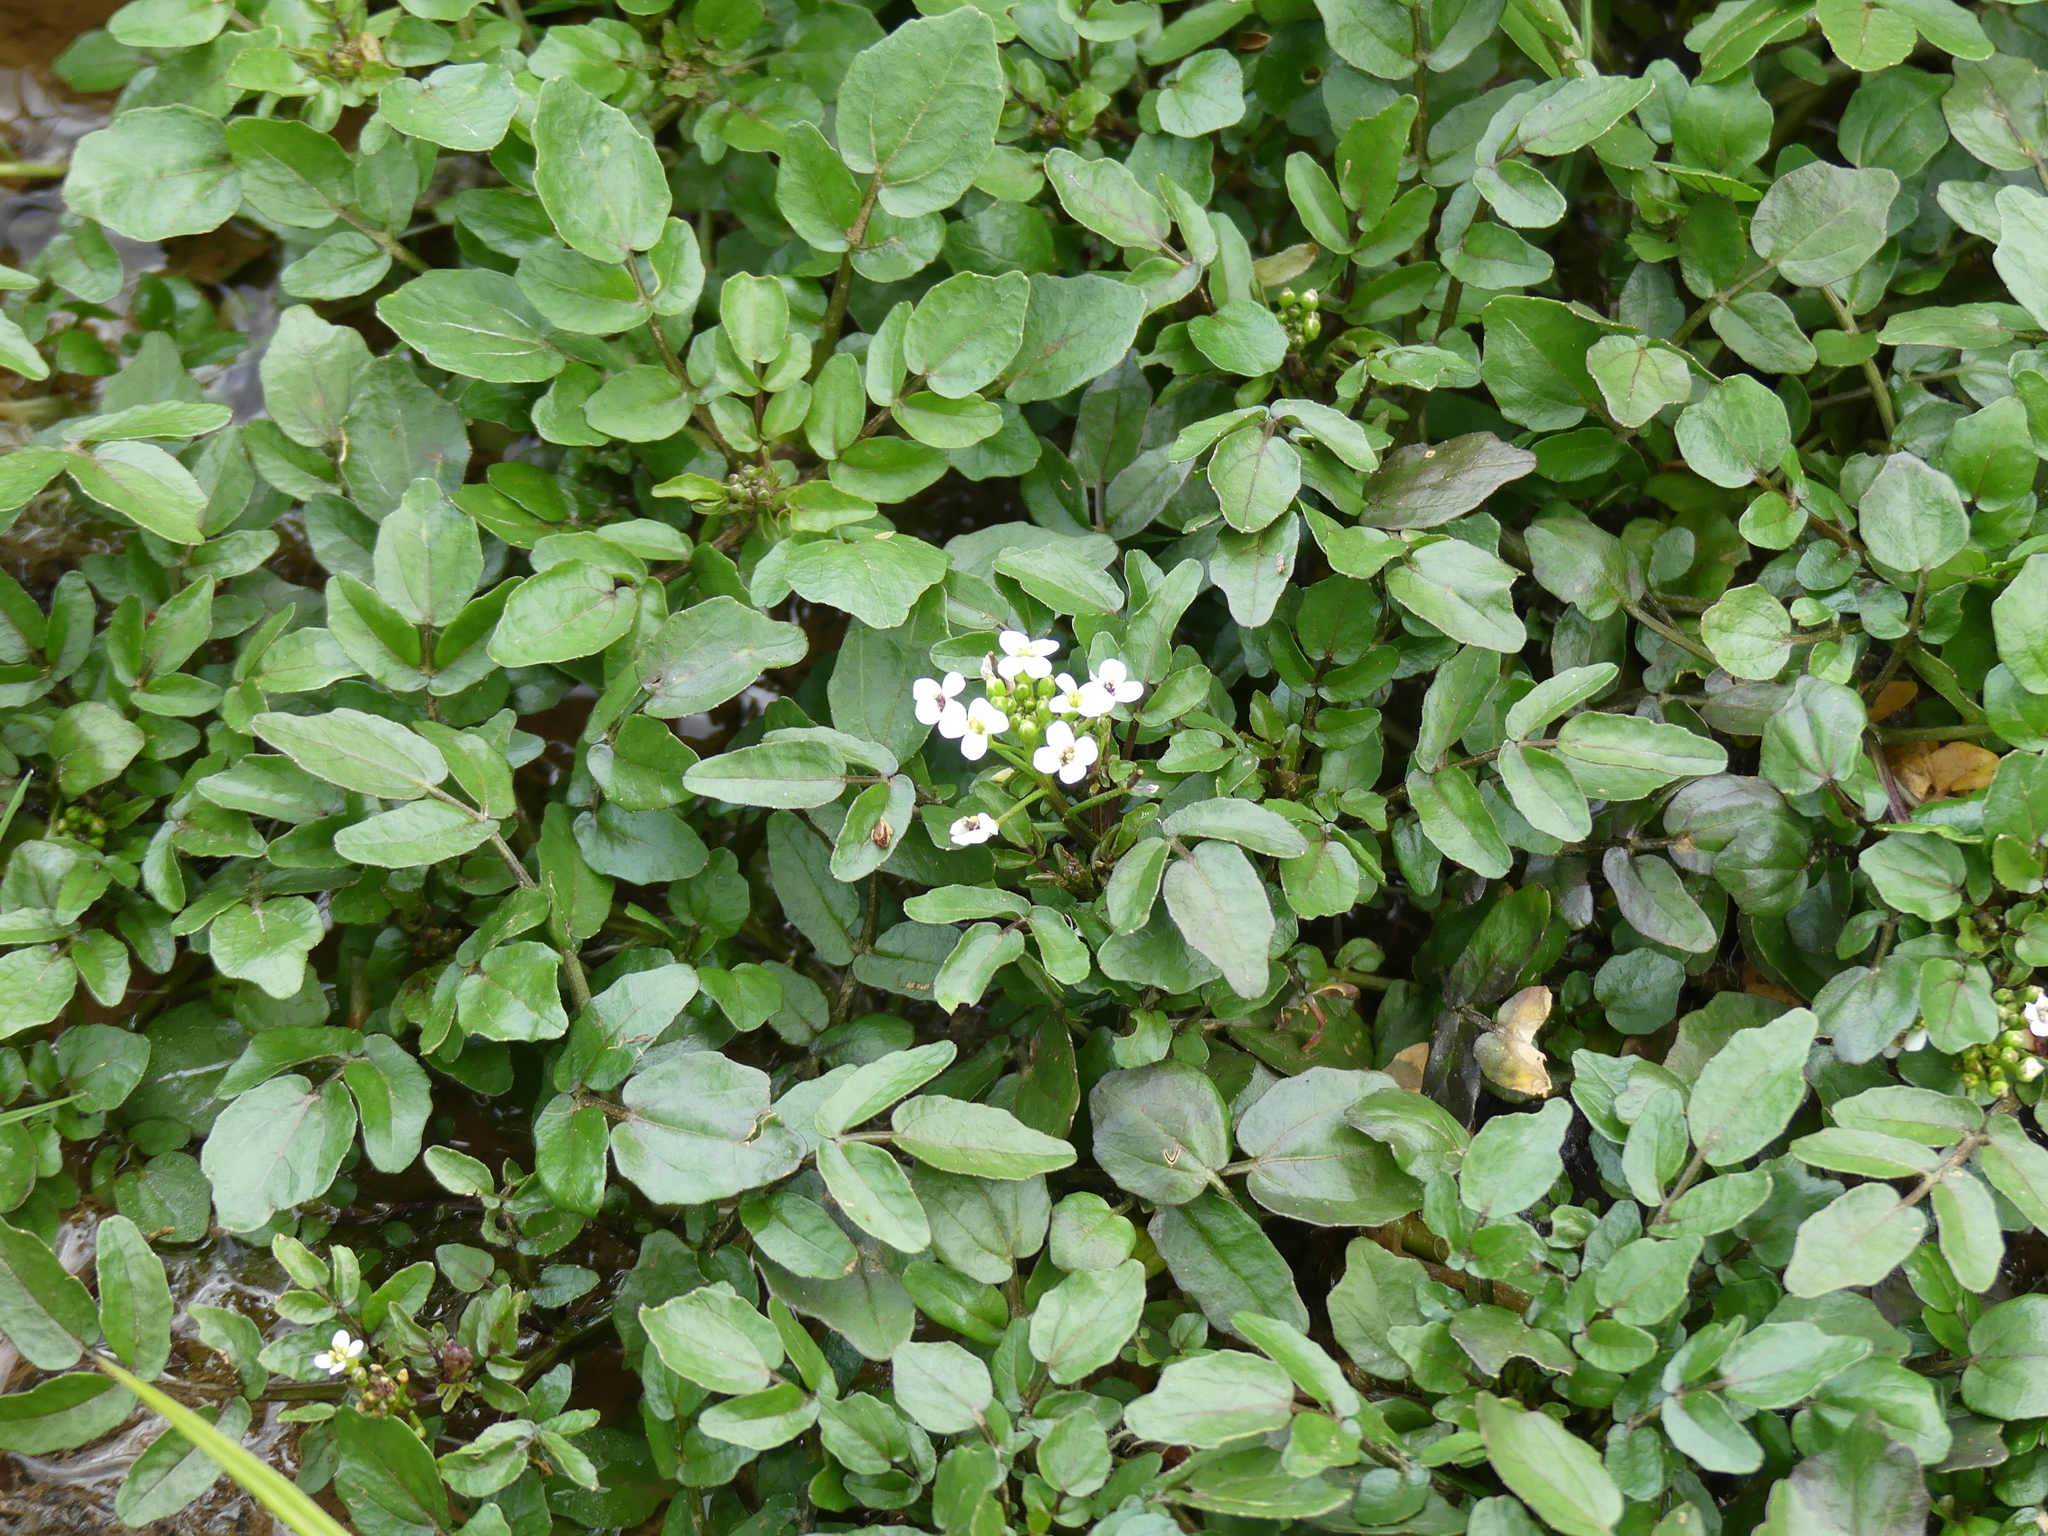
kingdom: Plantae
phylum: Tracheophyta
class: Magnoliopsida
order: Brassicales
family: Brassicaceae
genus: Nasturtium
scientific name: Nasturtium officinale
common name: Watercress
